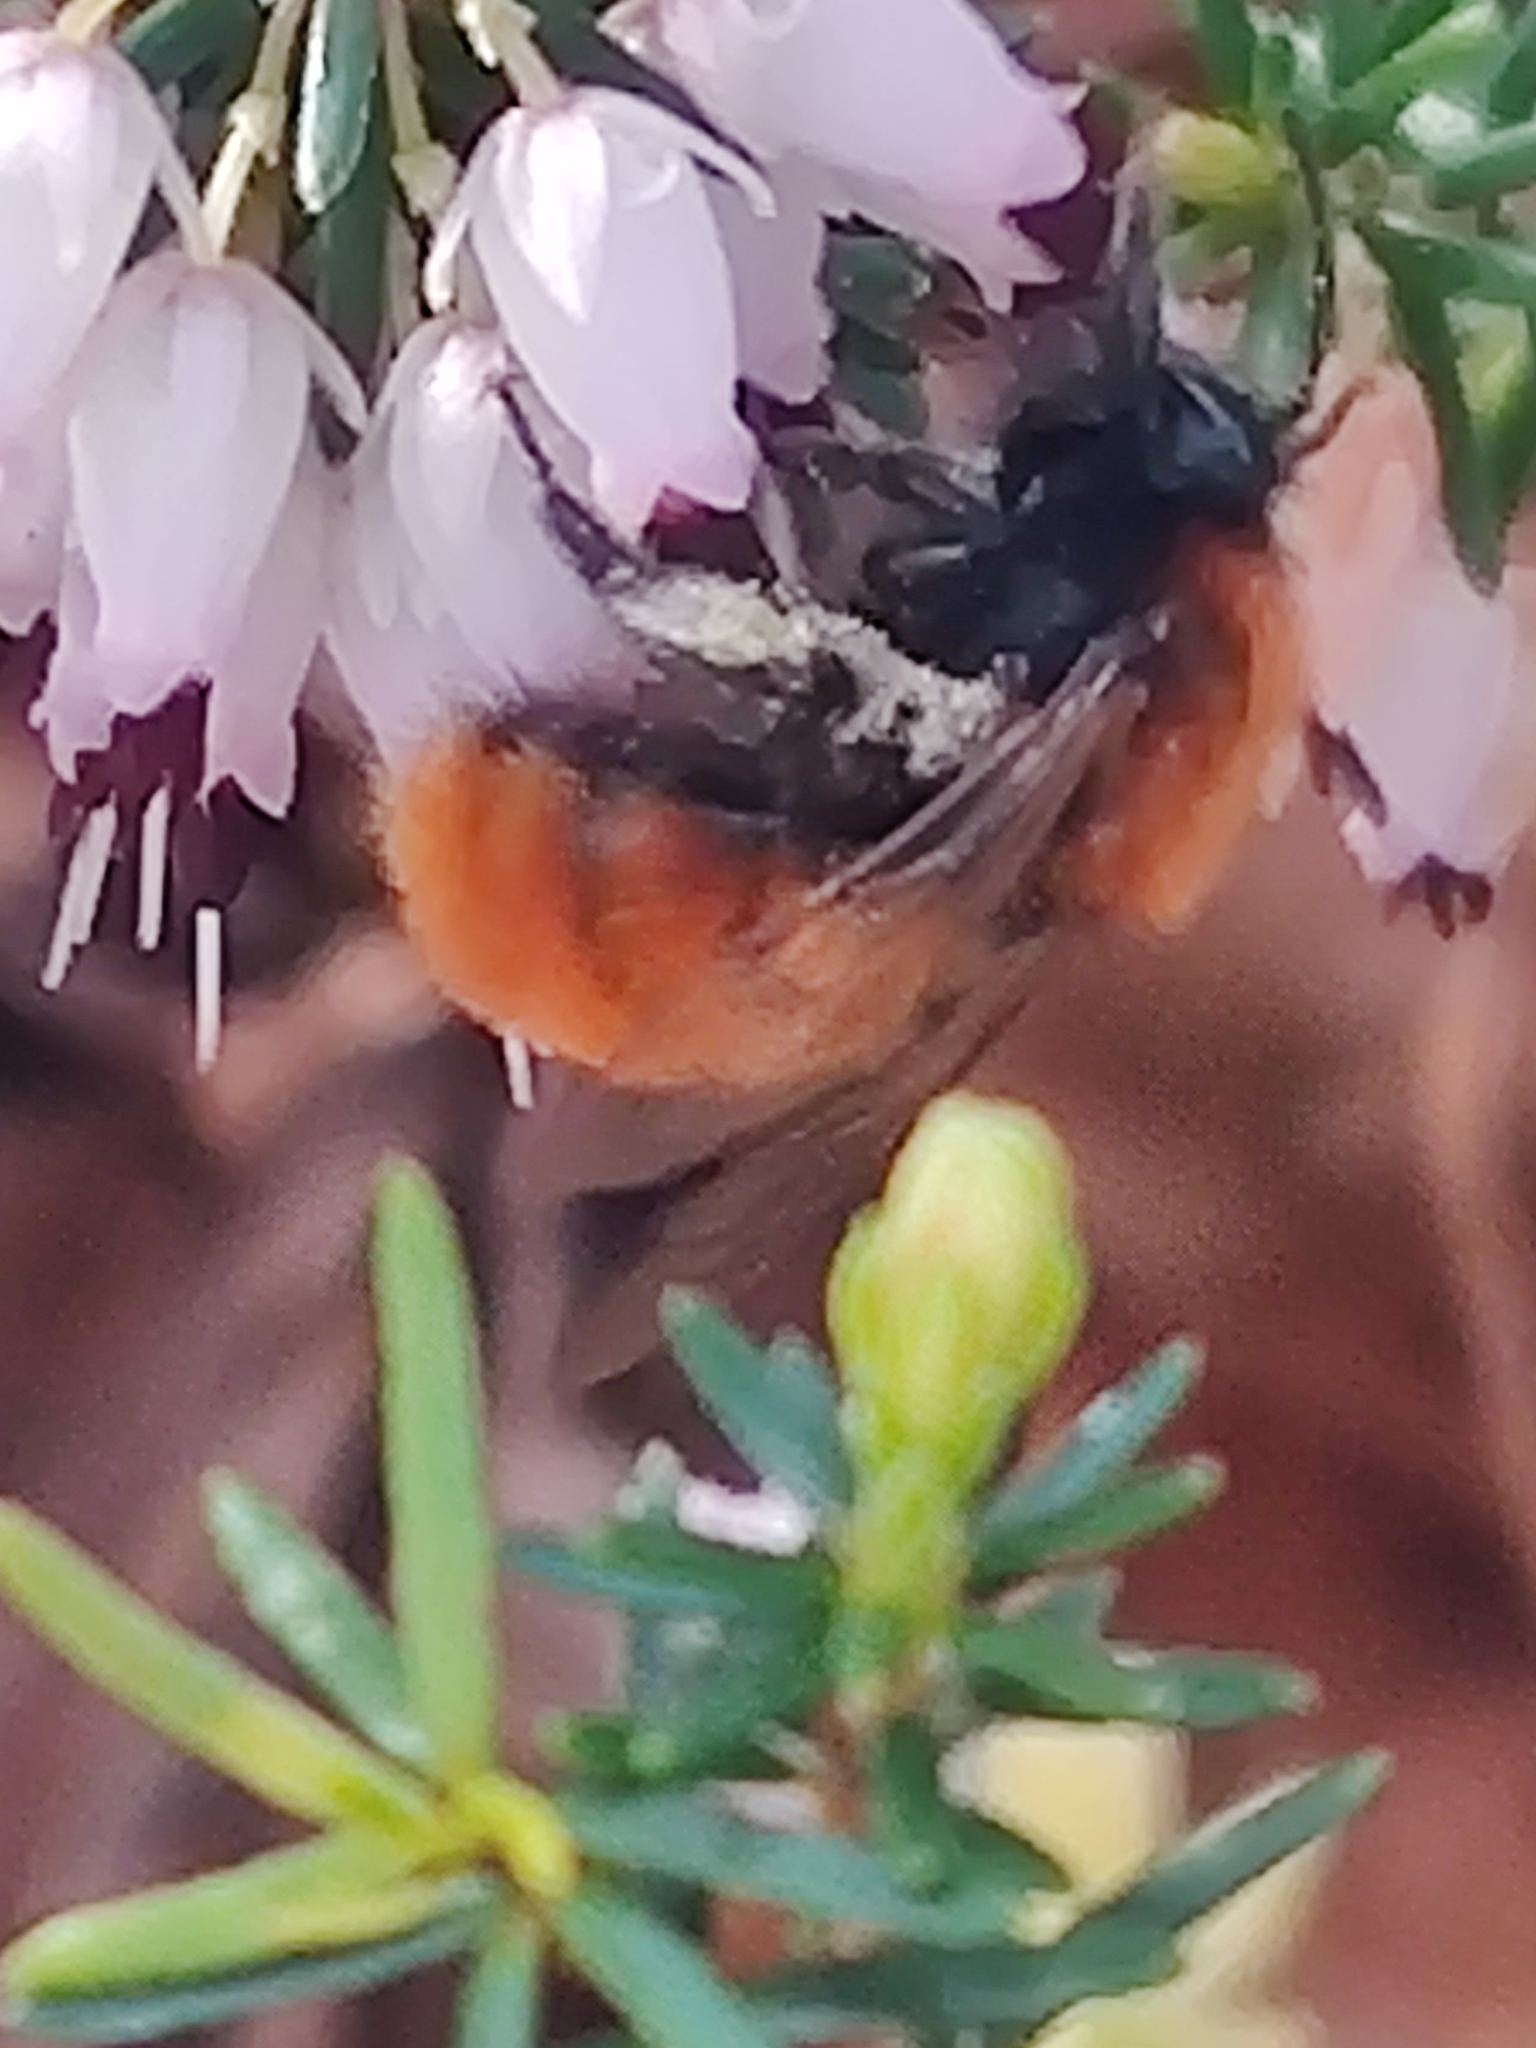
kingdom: Animalia
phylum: Arthropoda
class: Insecta
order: Hymenoptera
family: Andrenidae
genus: Andrena
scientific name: Andrena fulva
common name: Tawny mining bee
